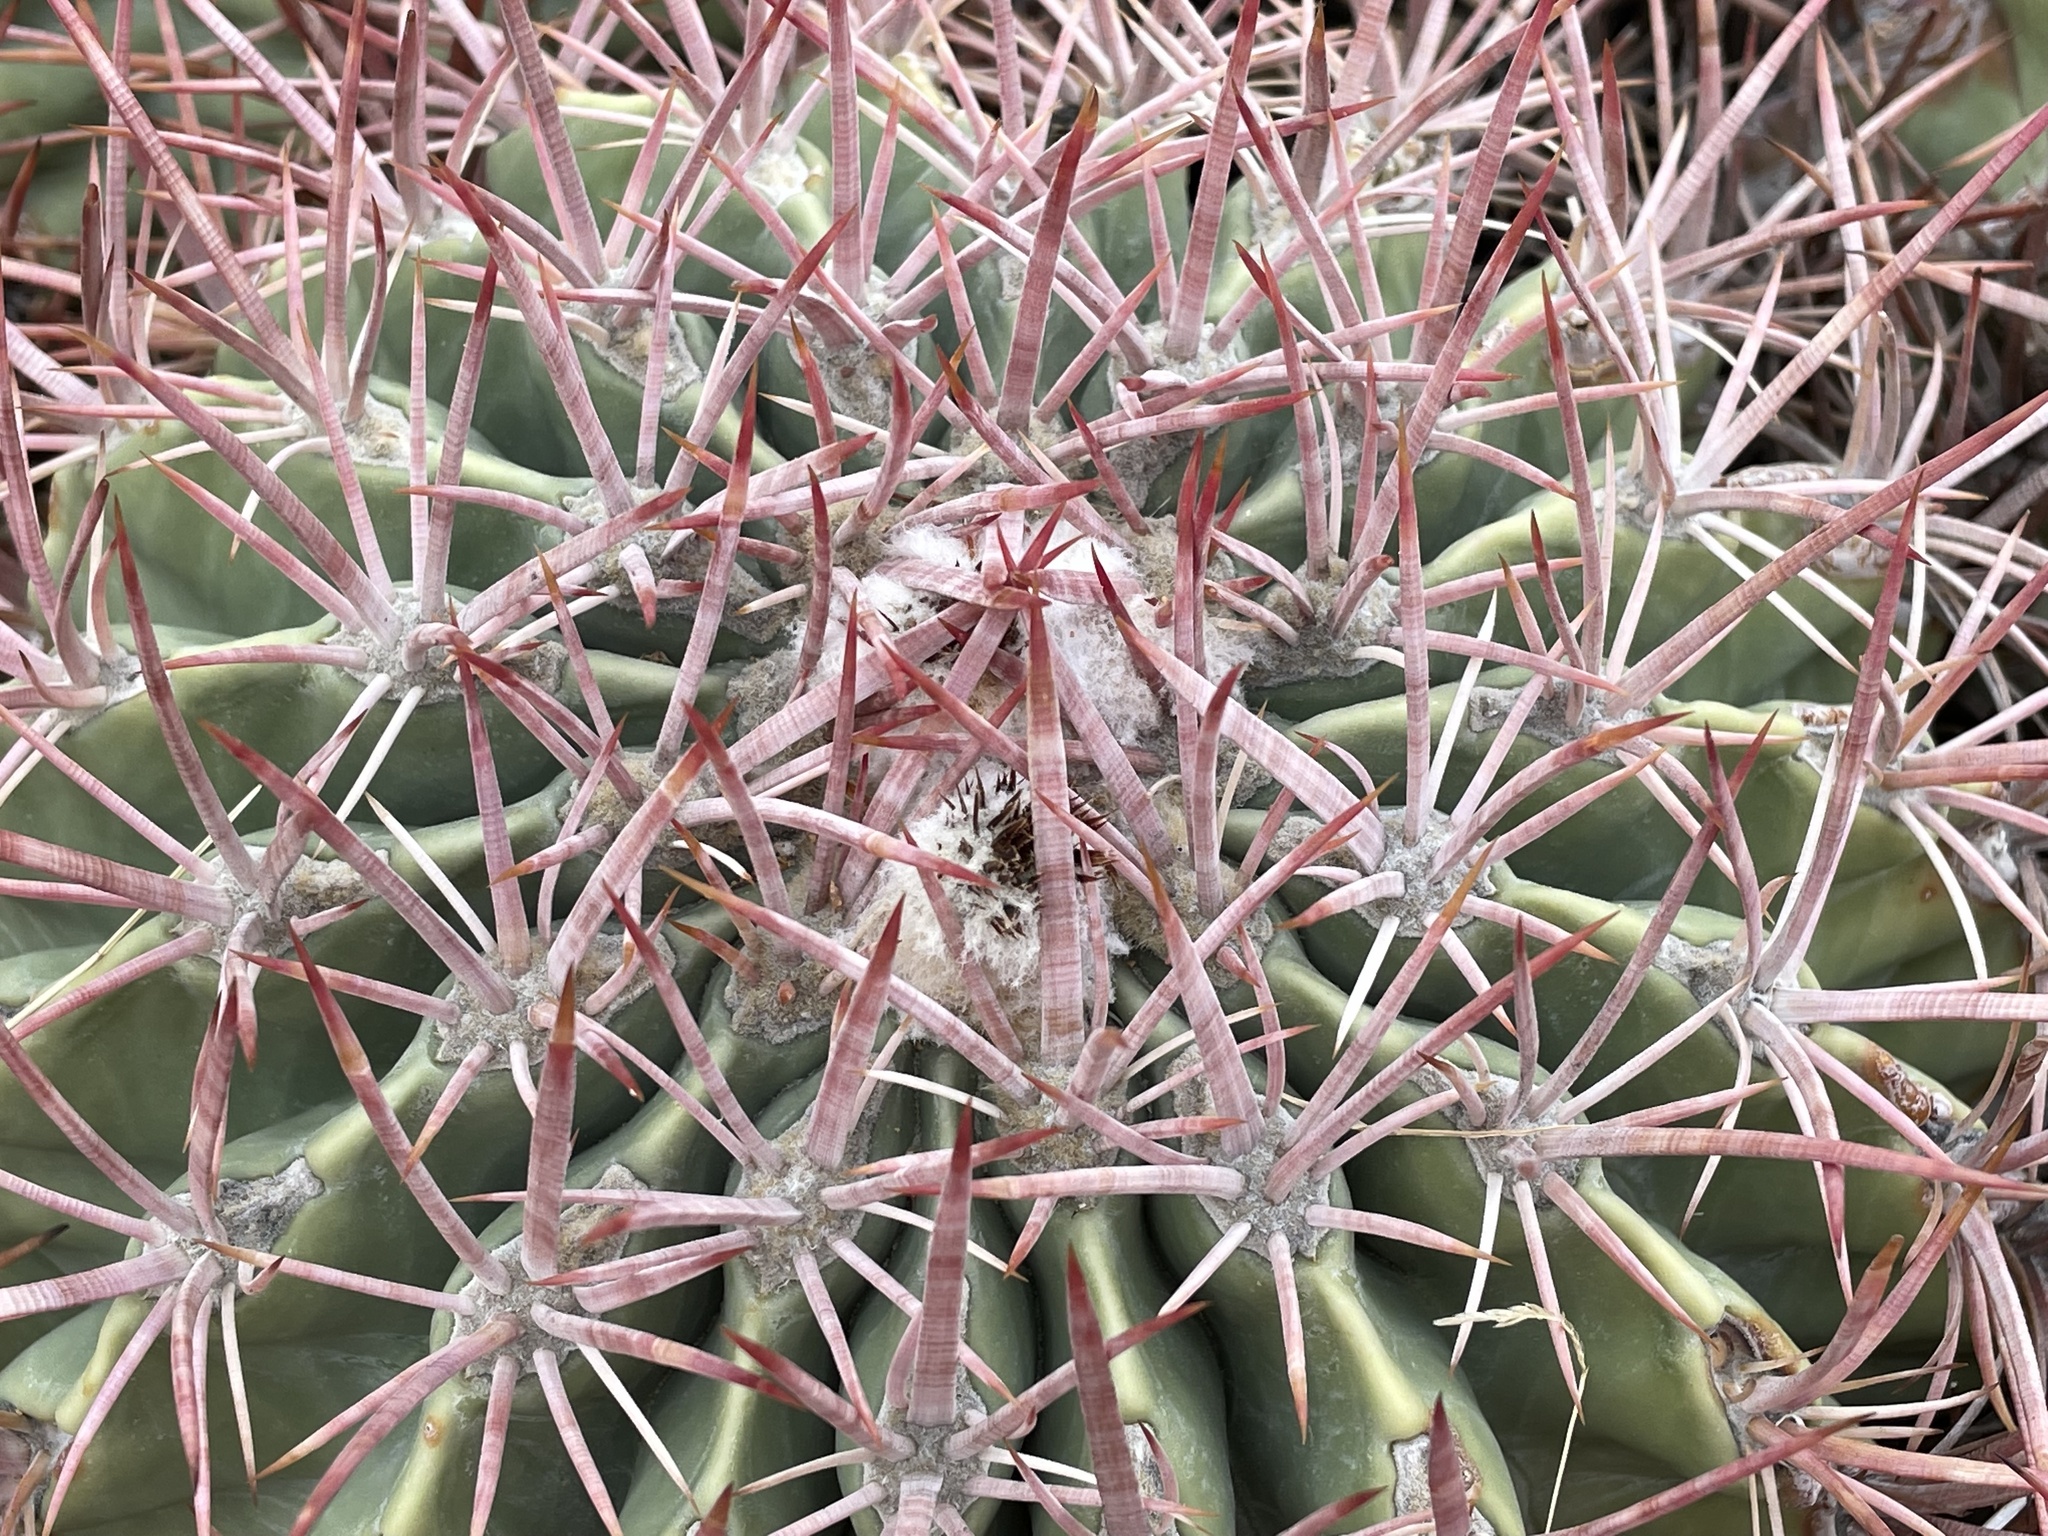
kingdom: Plantae
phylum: Tracheophyta
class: Magnoliopsida
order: Caryophyllales
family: Cactaceae
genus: Echinocactus
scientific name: Echinocactus polycephalus
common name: Cottontop cactus
